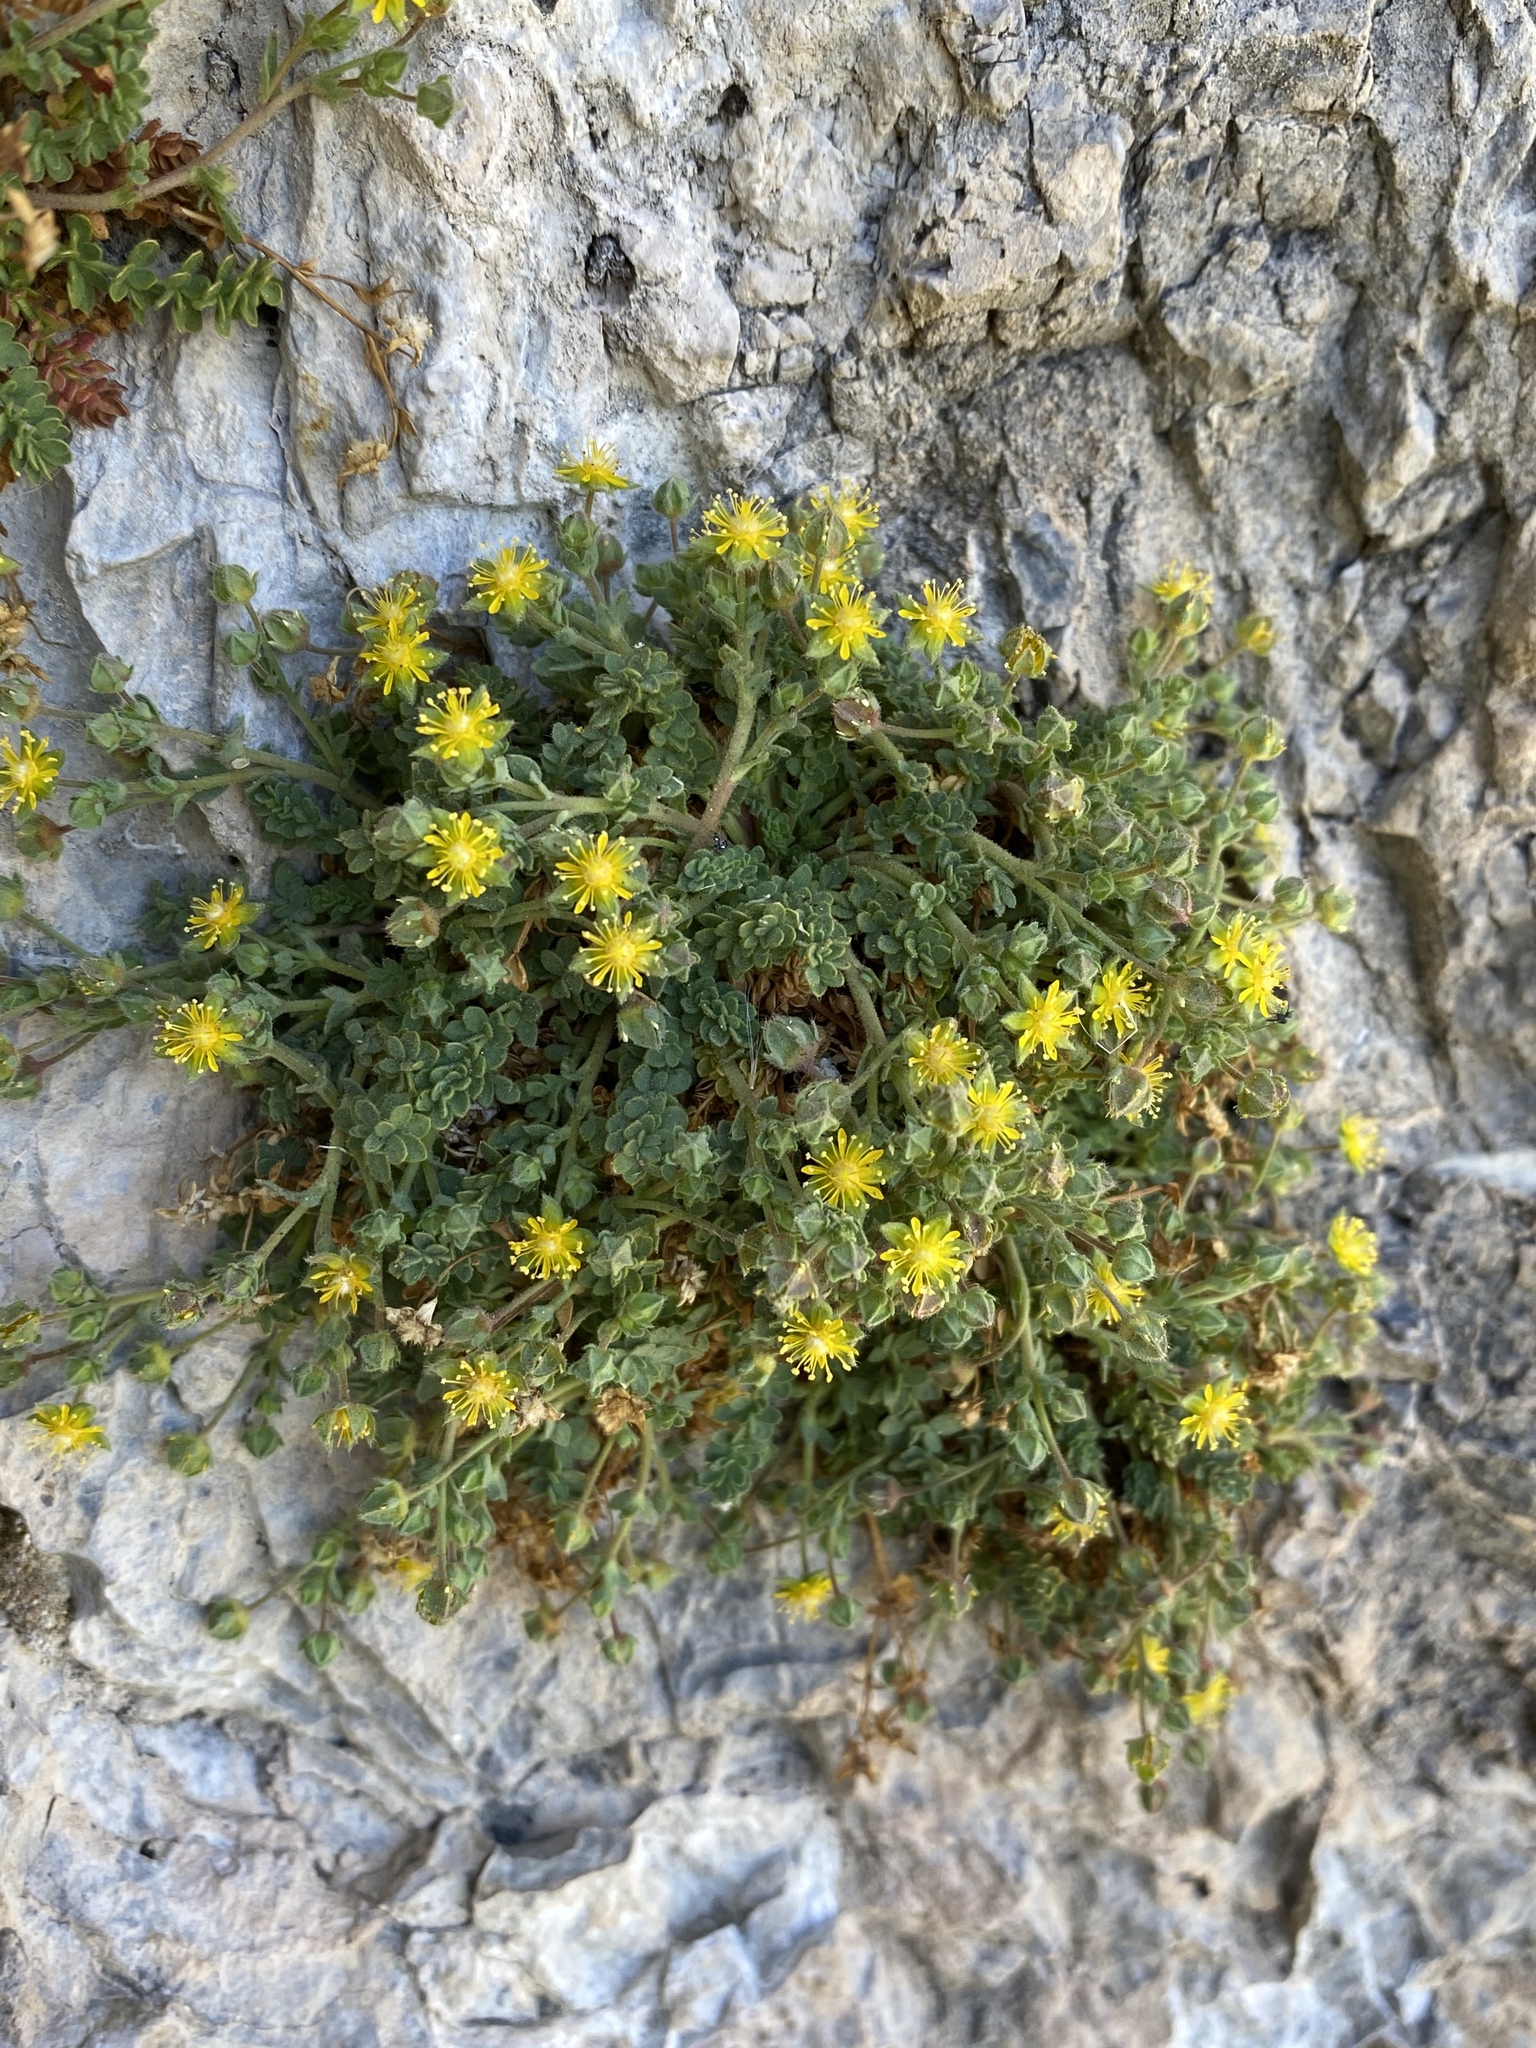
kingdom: Plantae
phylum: Tracheophyta
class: Magnoliopsida
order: Rosales
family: Rosaceae
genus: Potentilla
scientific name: Potentilla jaegeri
